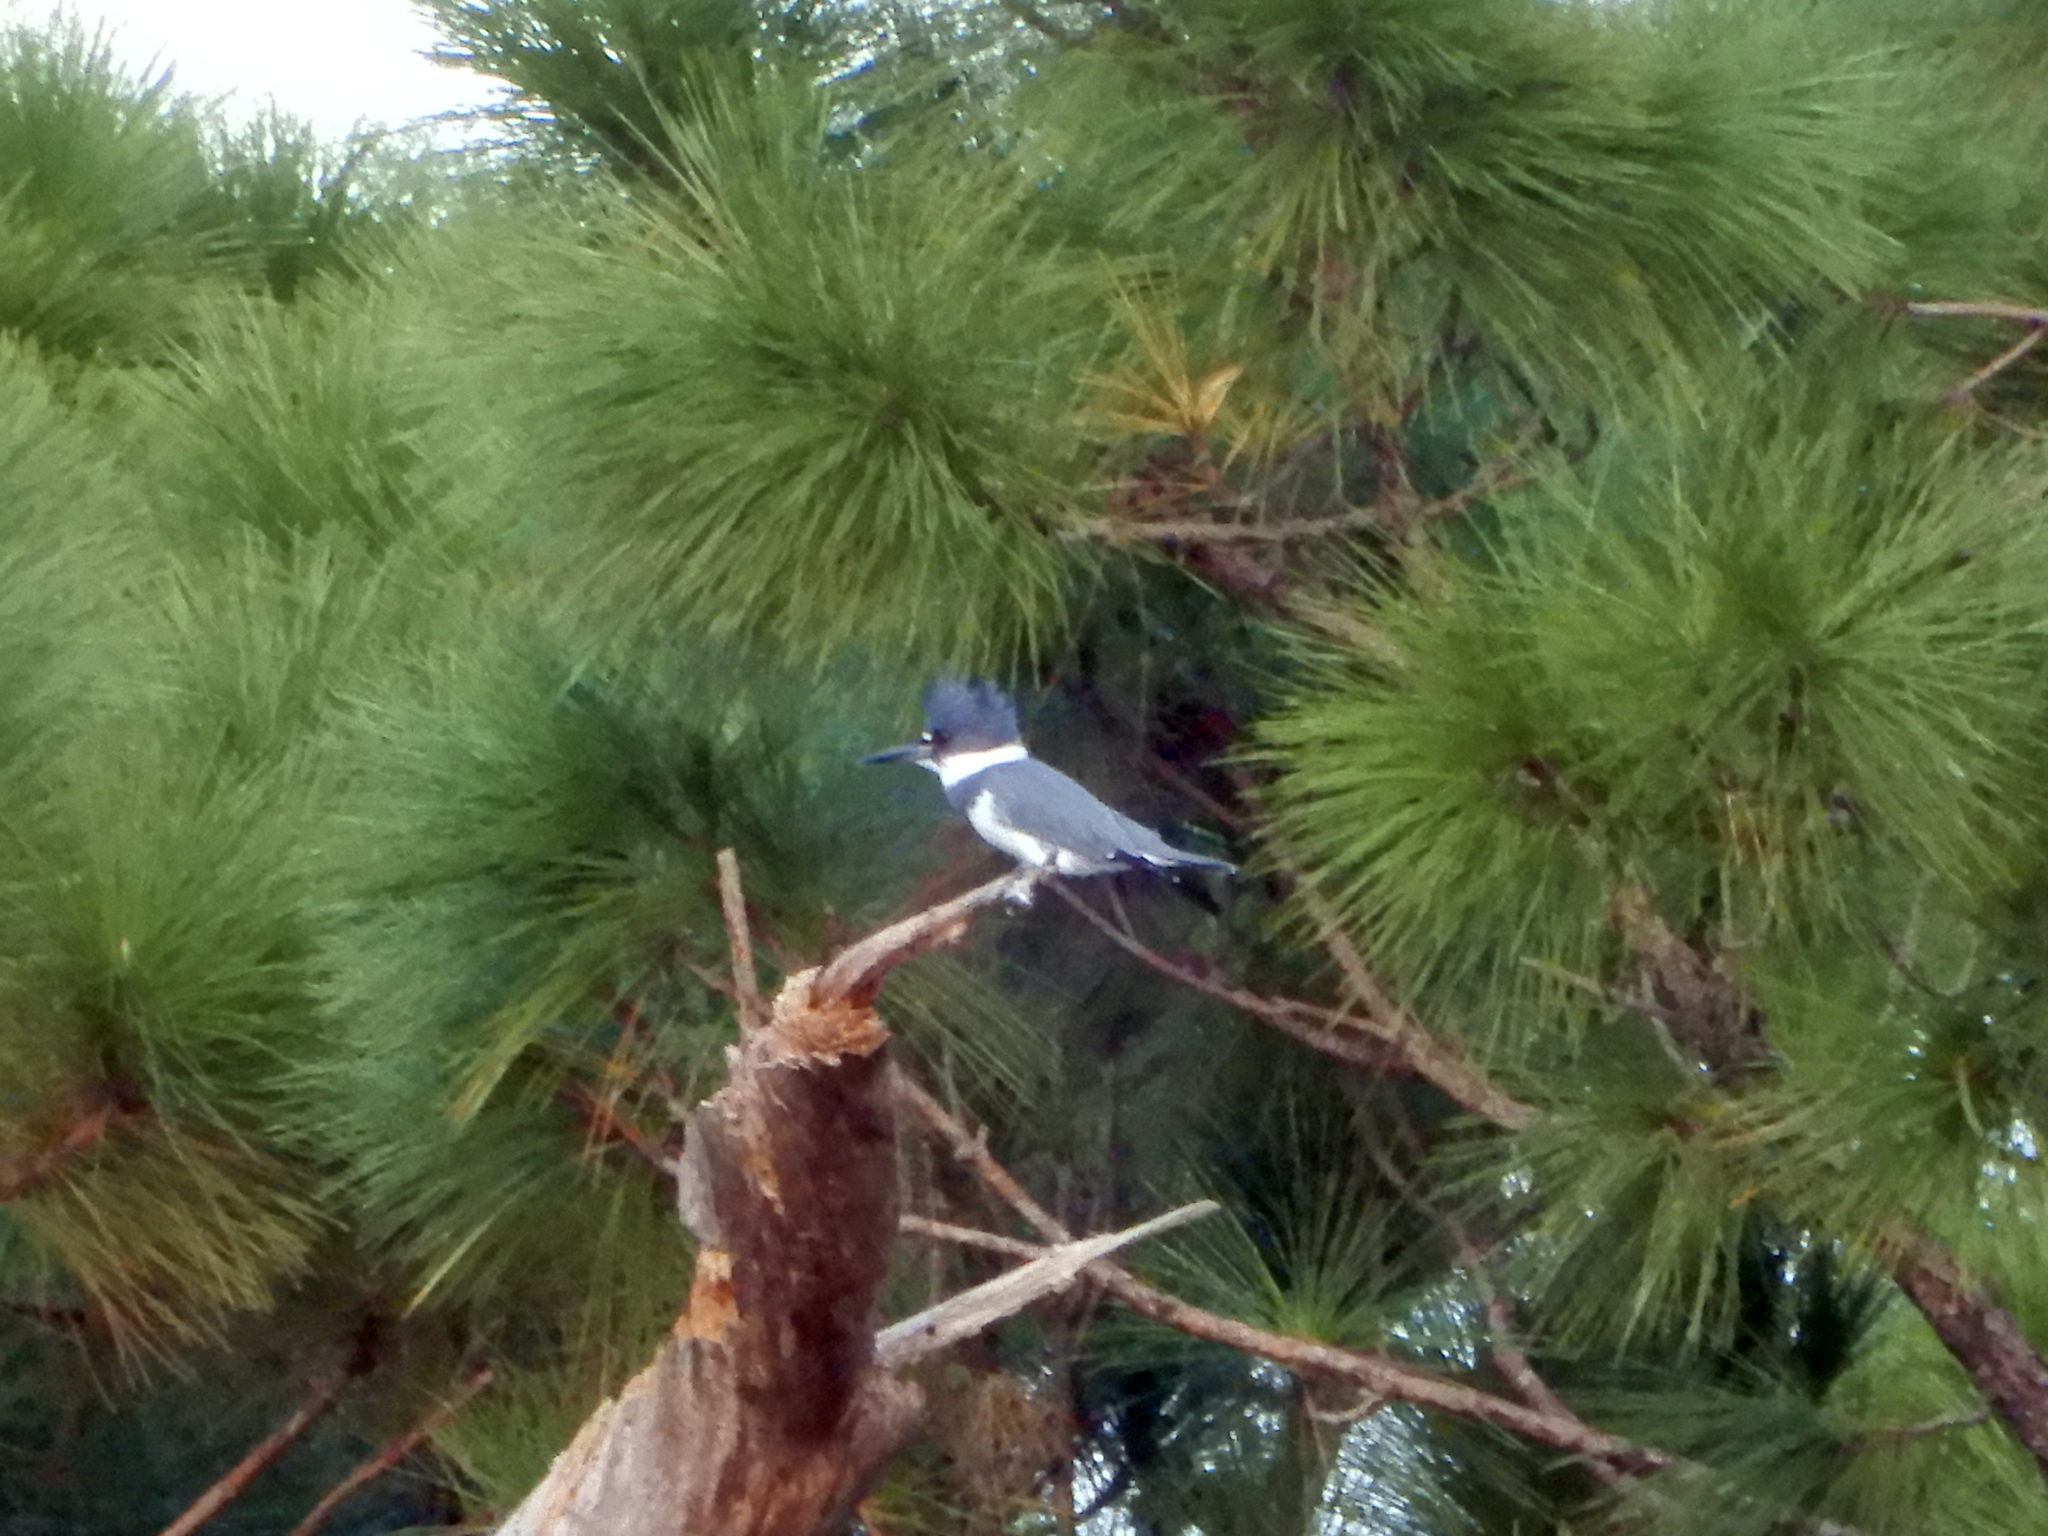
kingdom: Animalia
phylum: Chordata
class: Aves
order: Coraciiformes
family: Alcedinidae
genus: Megaceryle
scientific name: Megaceryle alcyon
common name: Belted kingfisher
